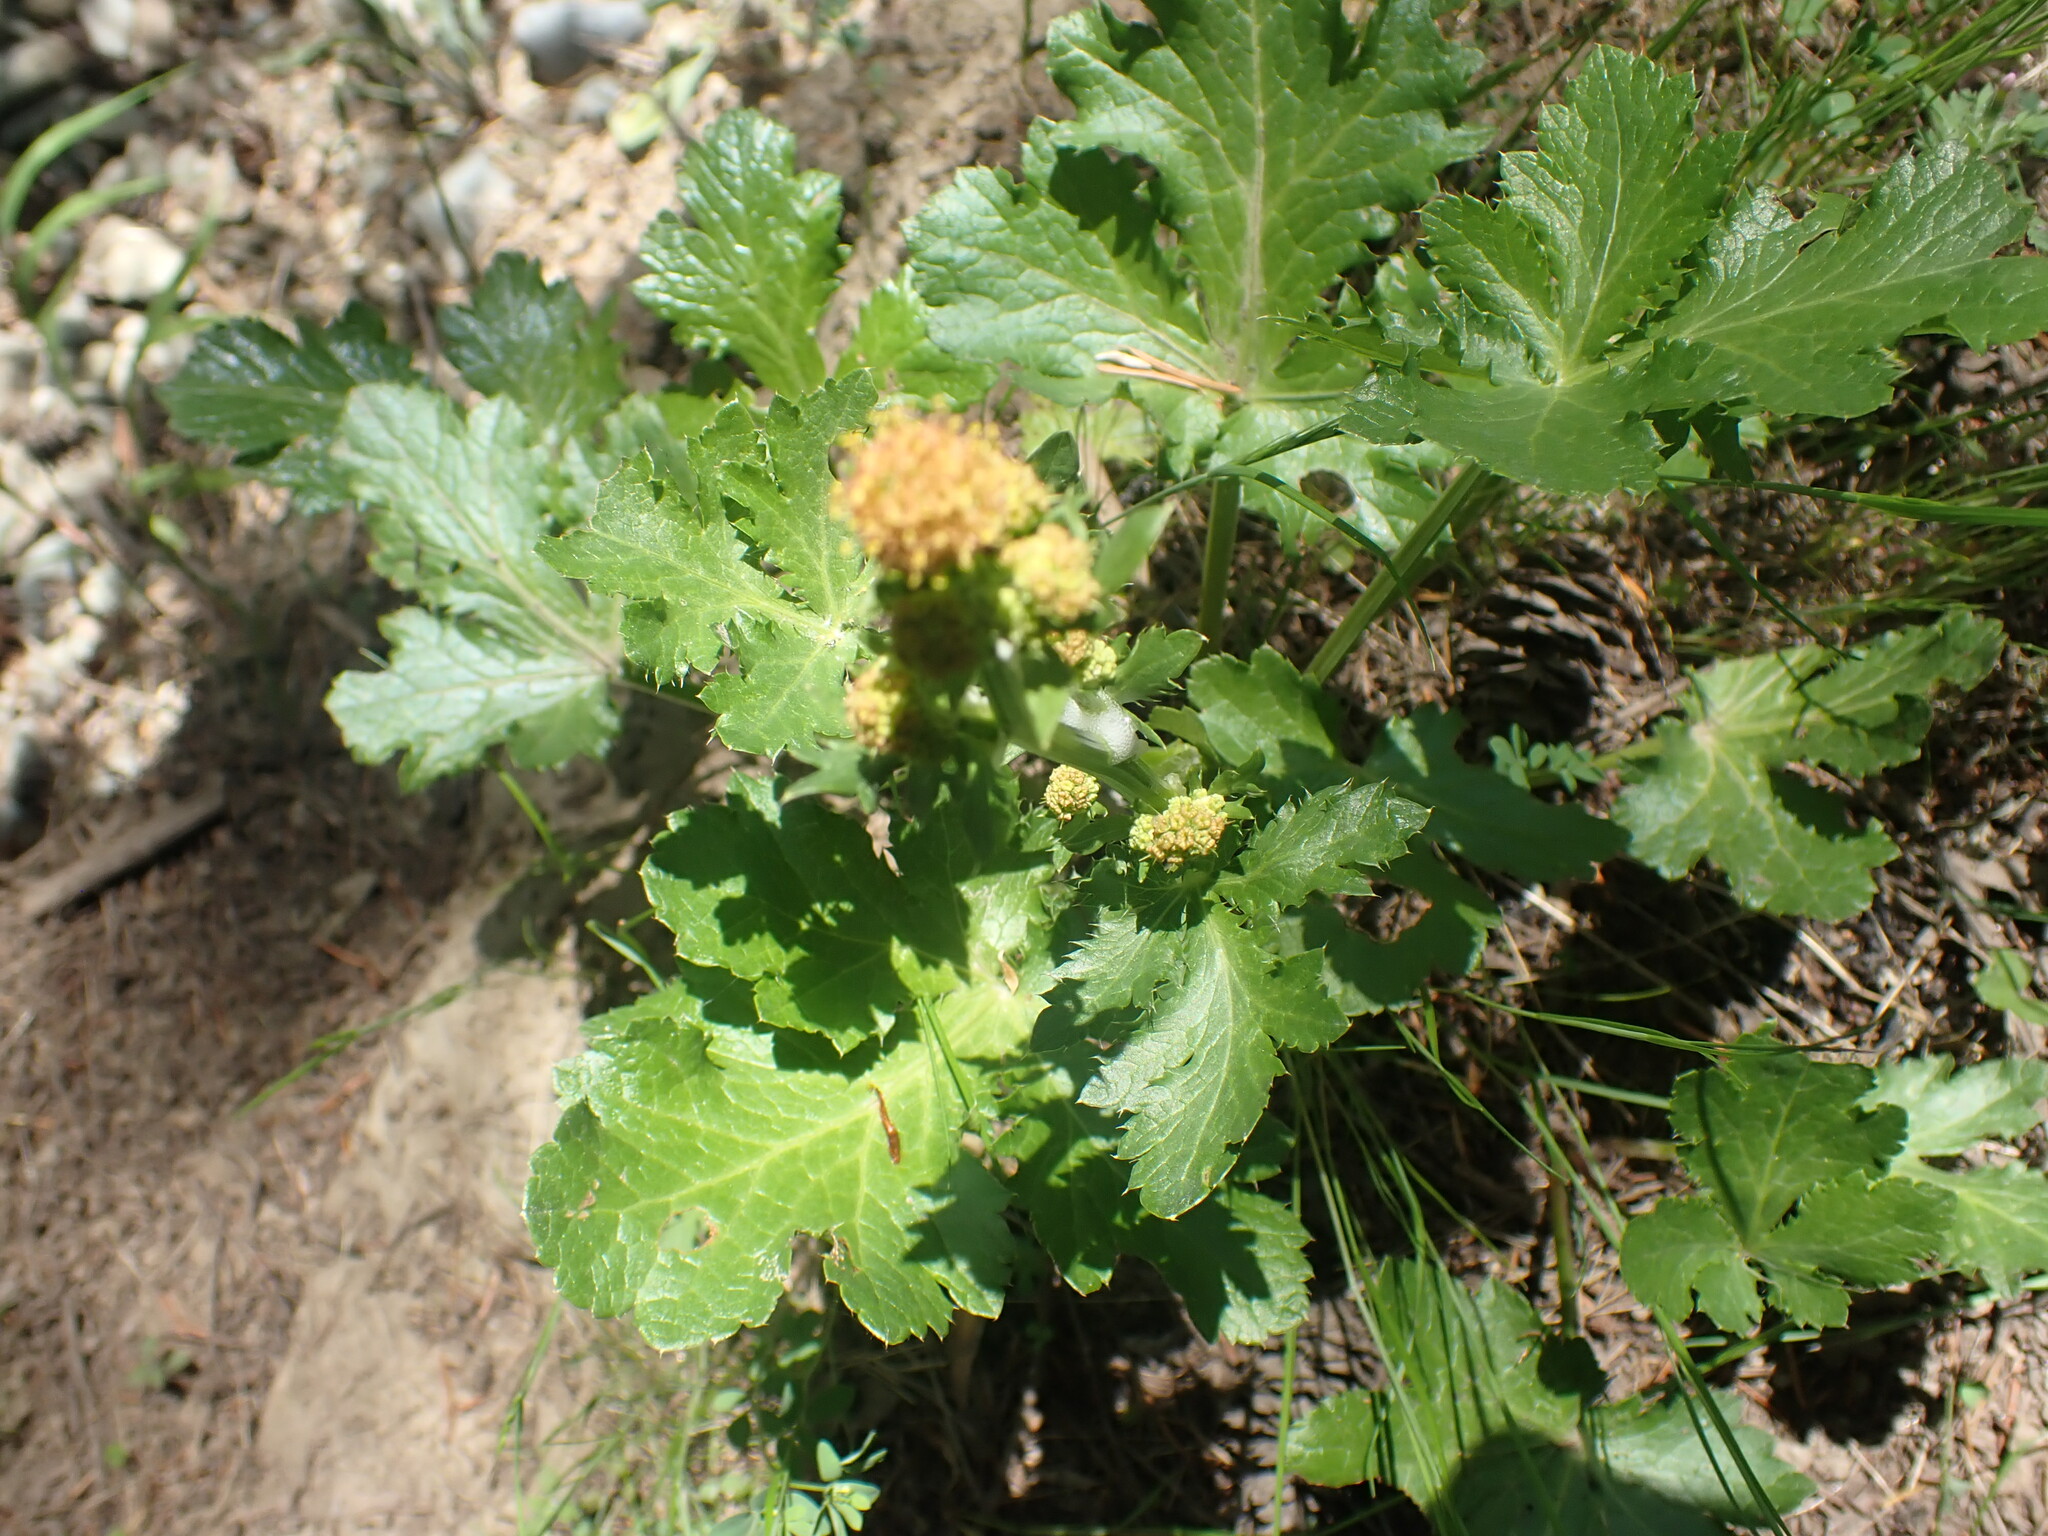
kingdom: Plantae
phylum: Tracheophyta
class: Magnoliopsida
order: Apiales
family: Apiaceae
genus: Sanicula
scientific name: Sanicula crassicaulis
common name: Western snakeroot
